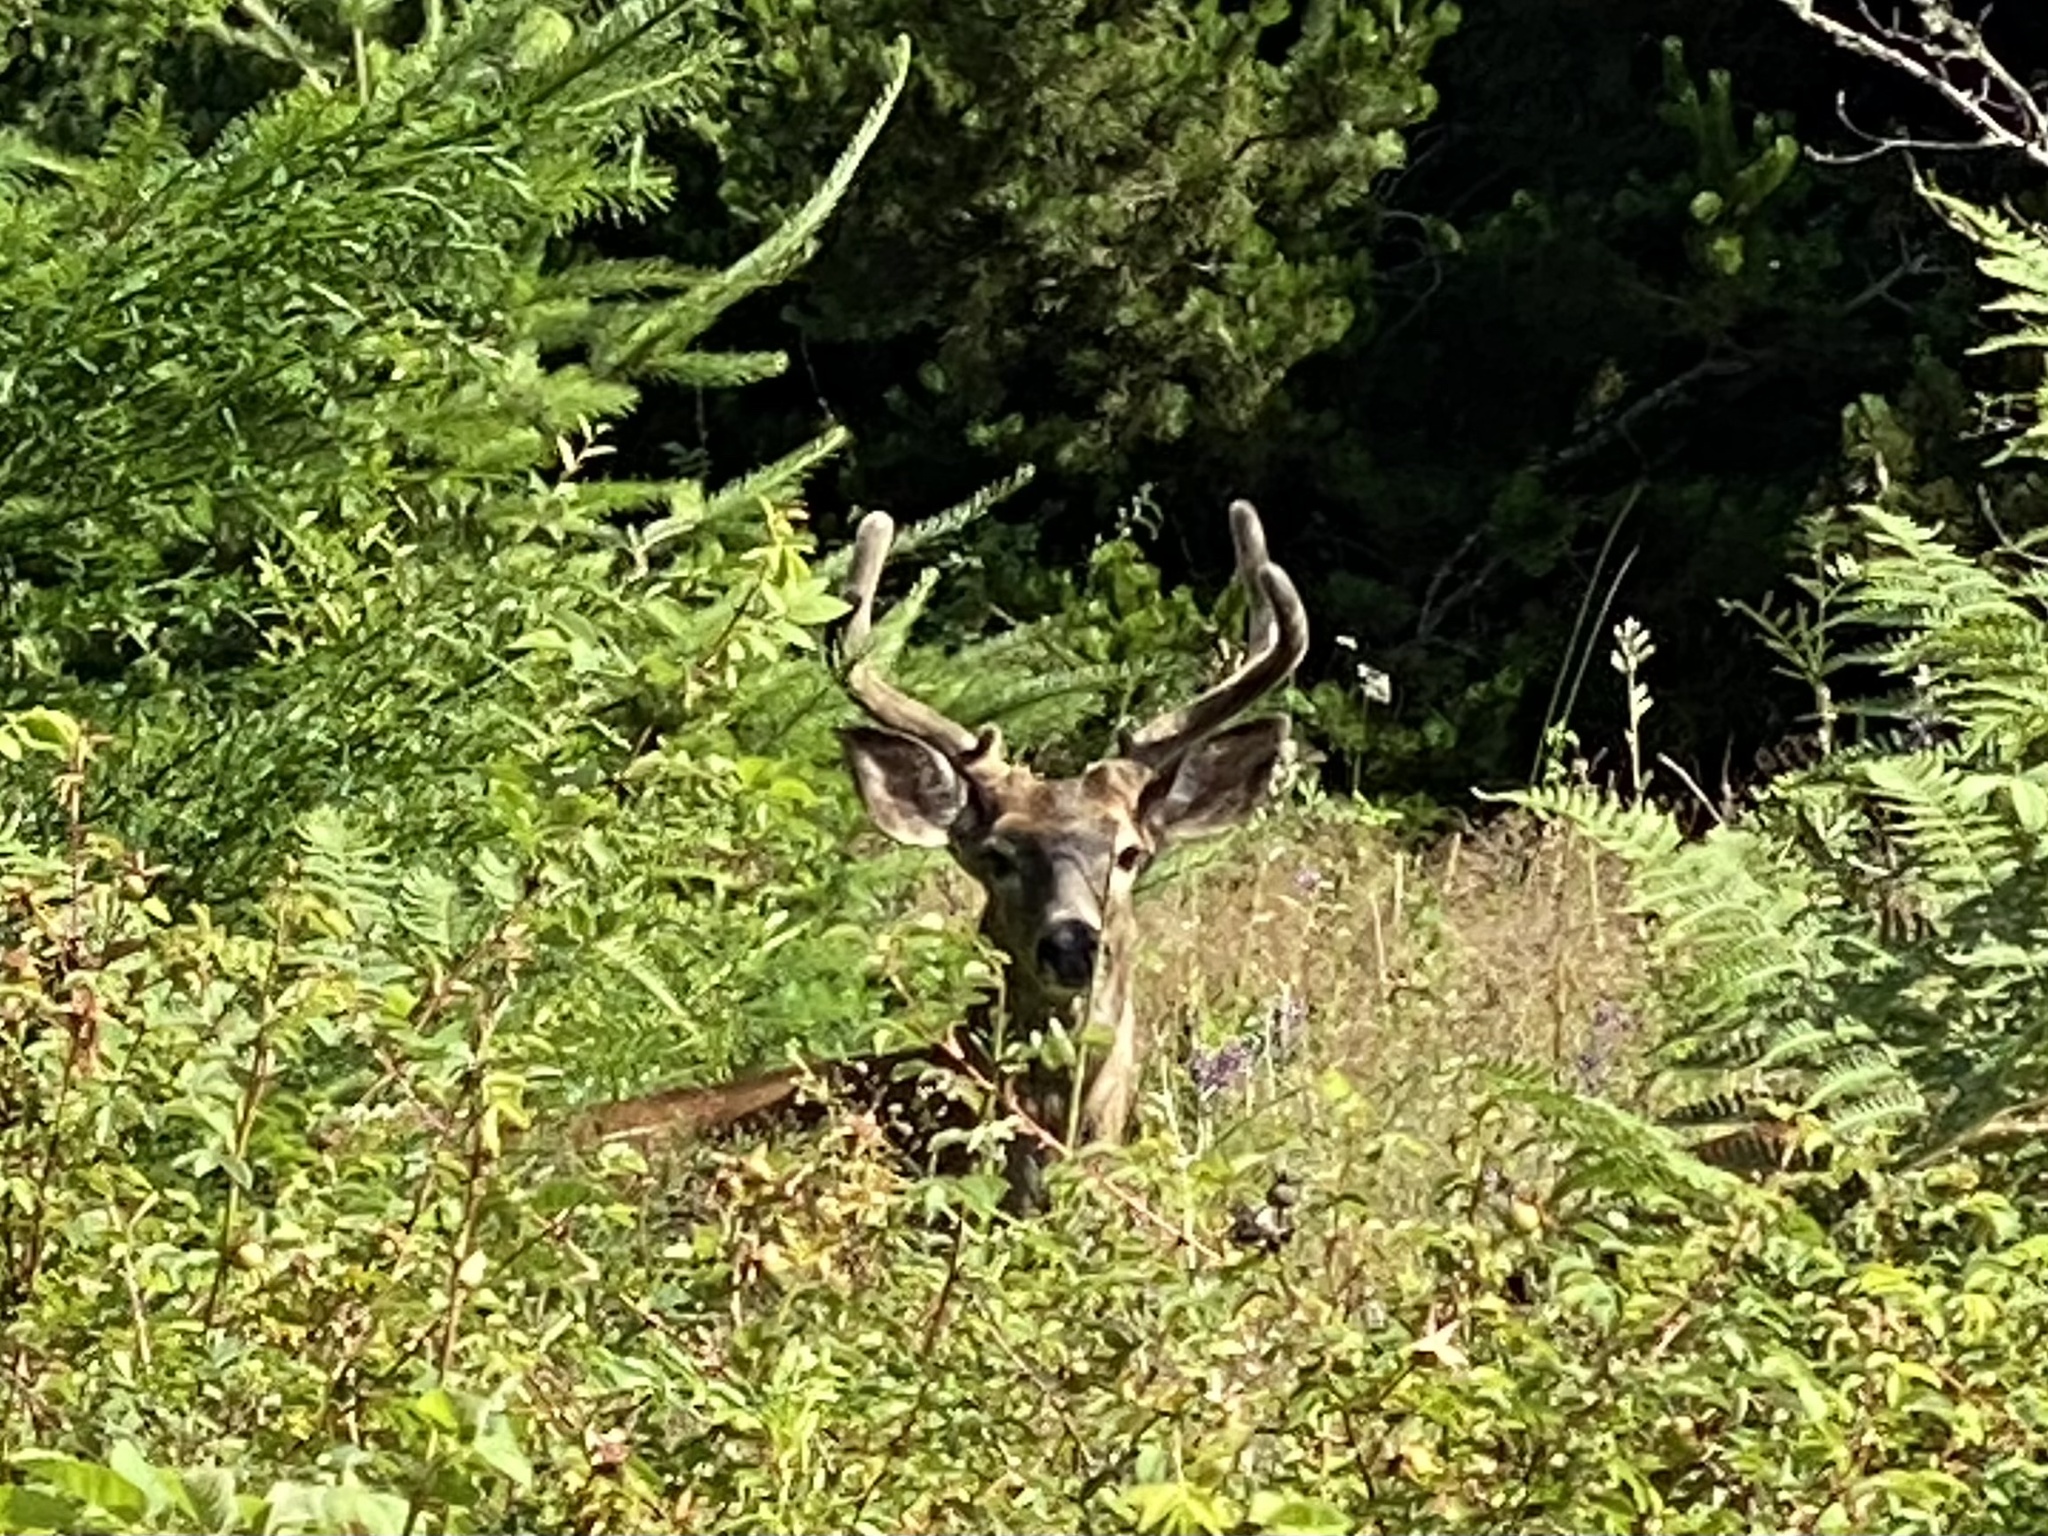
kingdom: Animalia
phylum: Chordata
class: Mammalia
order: Artiodactyla
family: Cervidae
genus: Odocoileus
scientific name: Odocoileus hemionus
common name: Mule deer
